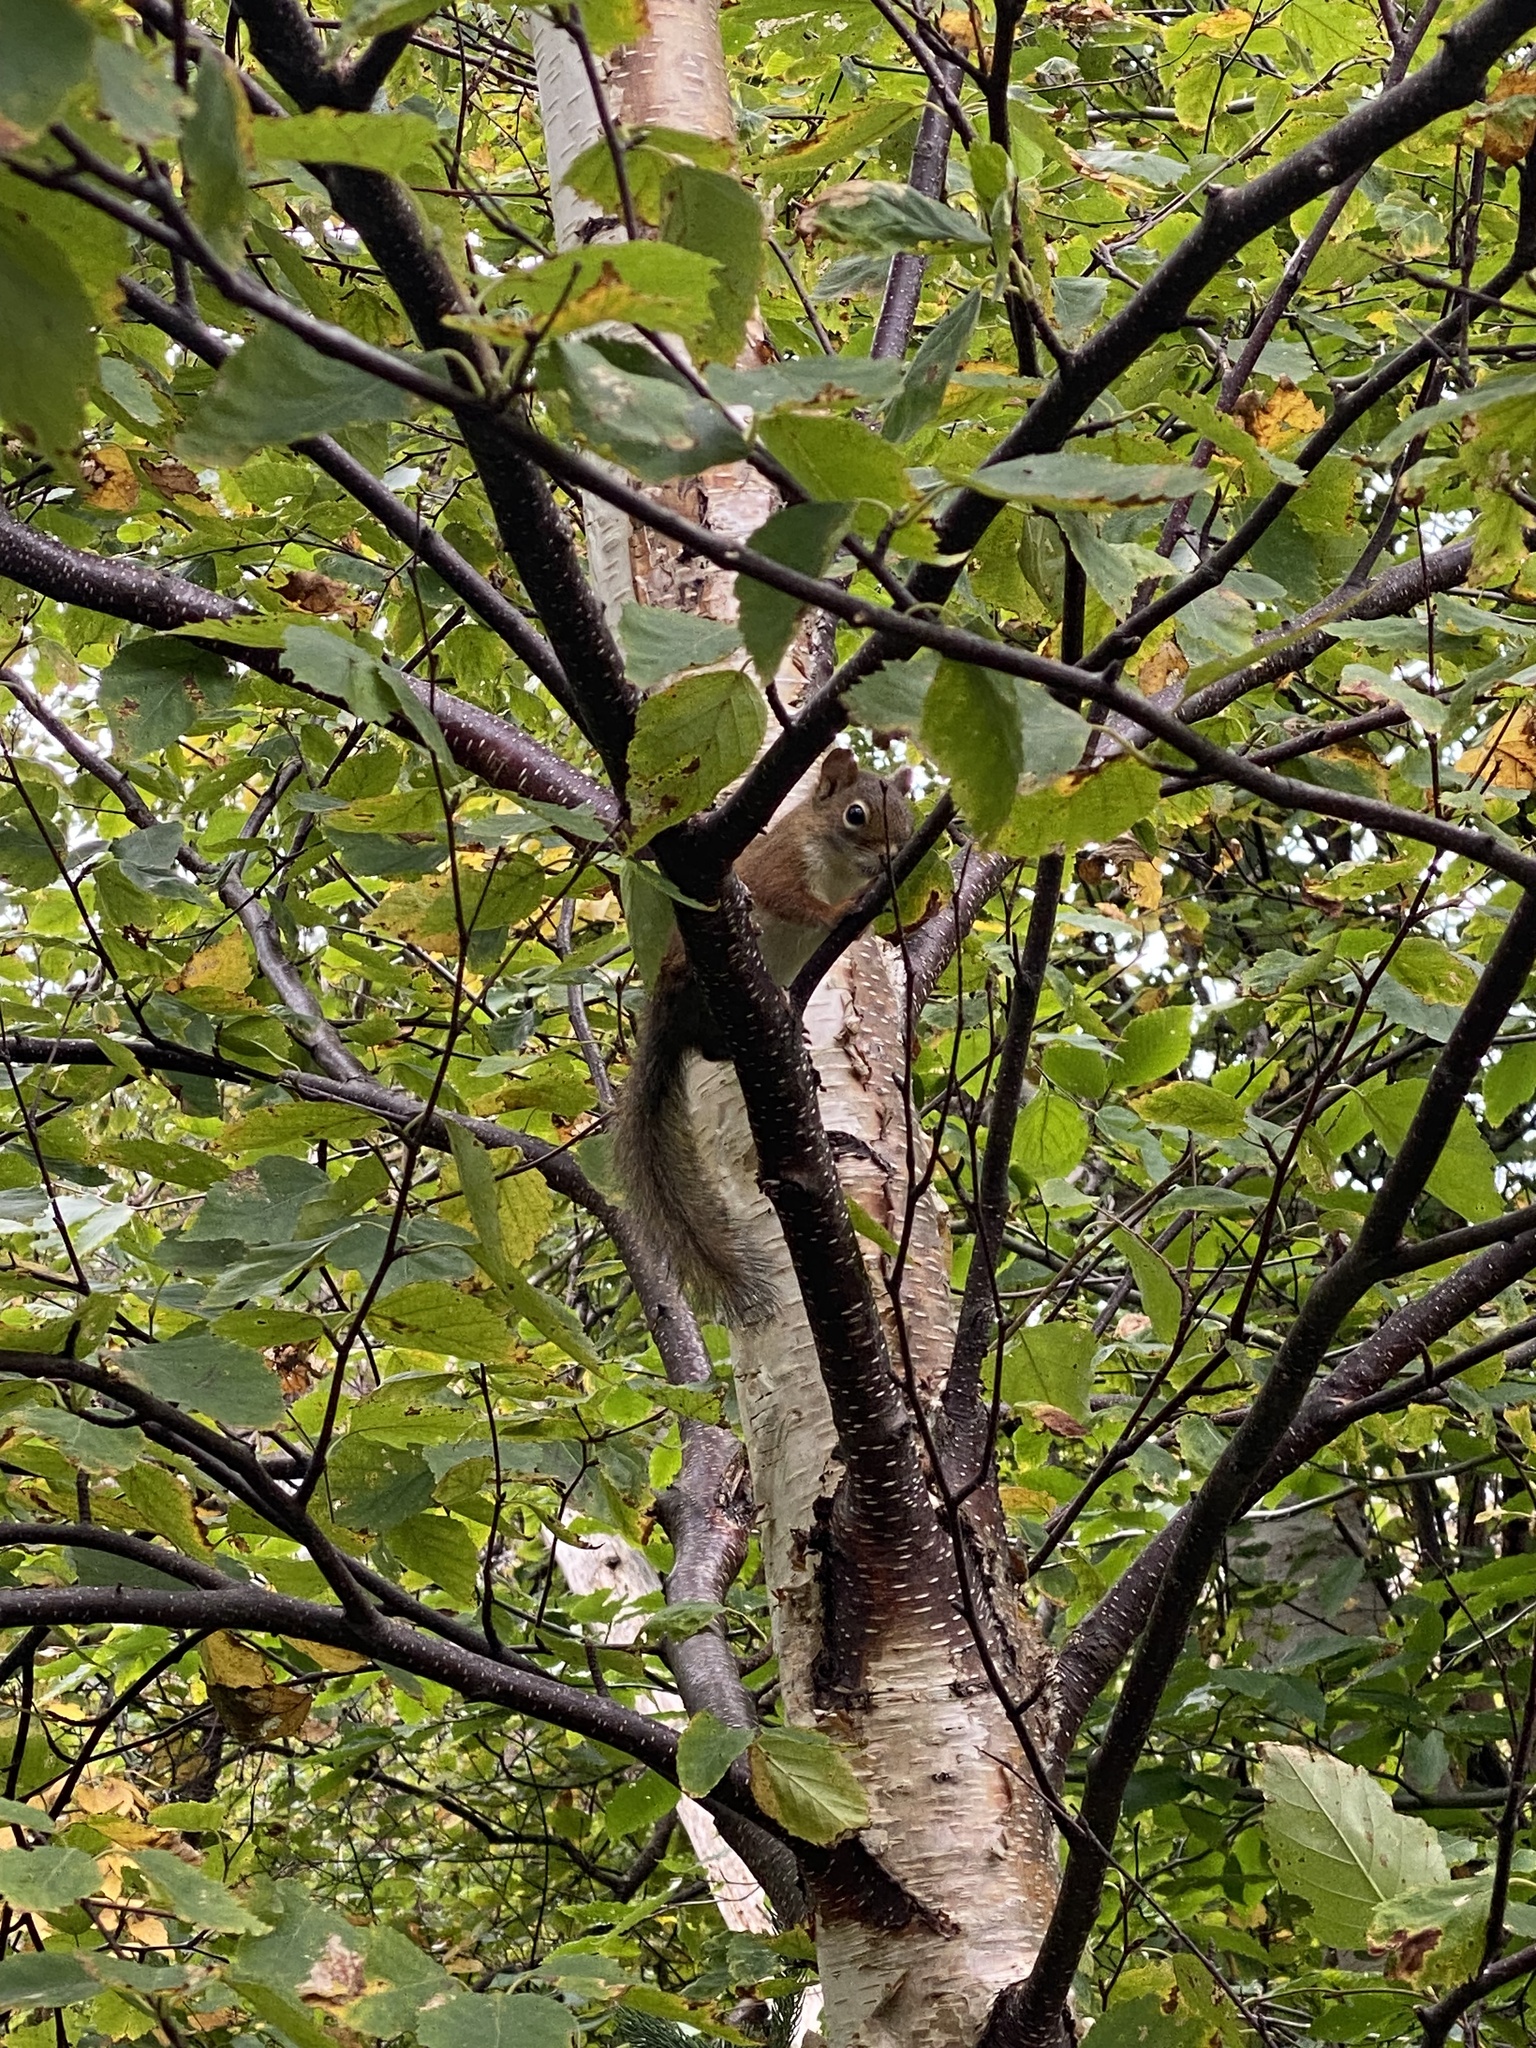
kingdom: Animalia
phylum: Chordata
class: Mammalia
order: Rodentia
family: Sciuridae
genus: Tamiasciurus
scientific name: Tamiasciurus hudsonicus
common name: Red squirrel
